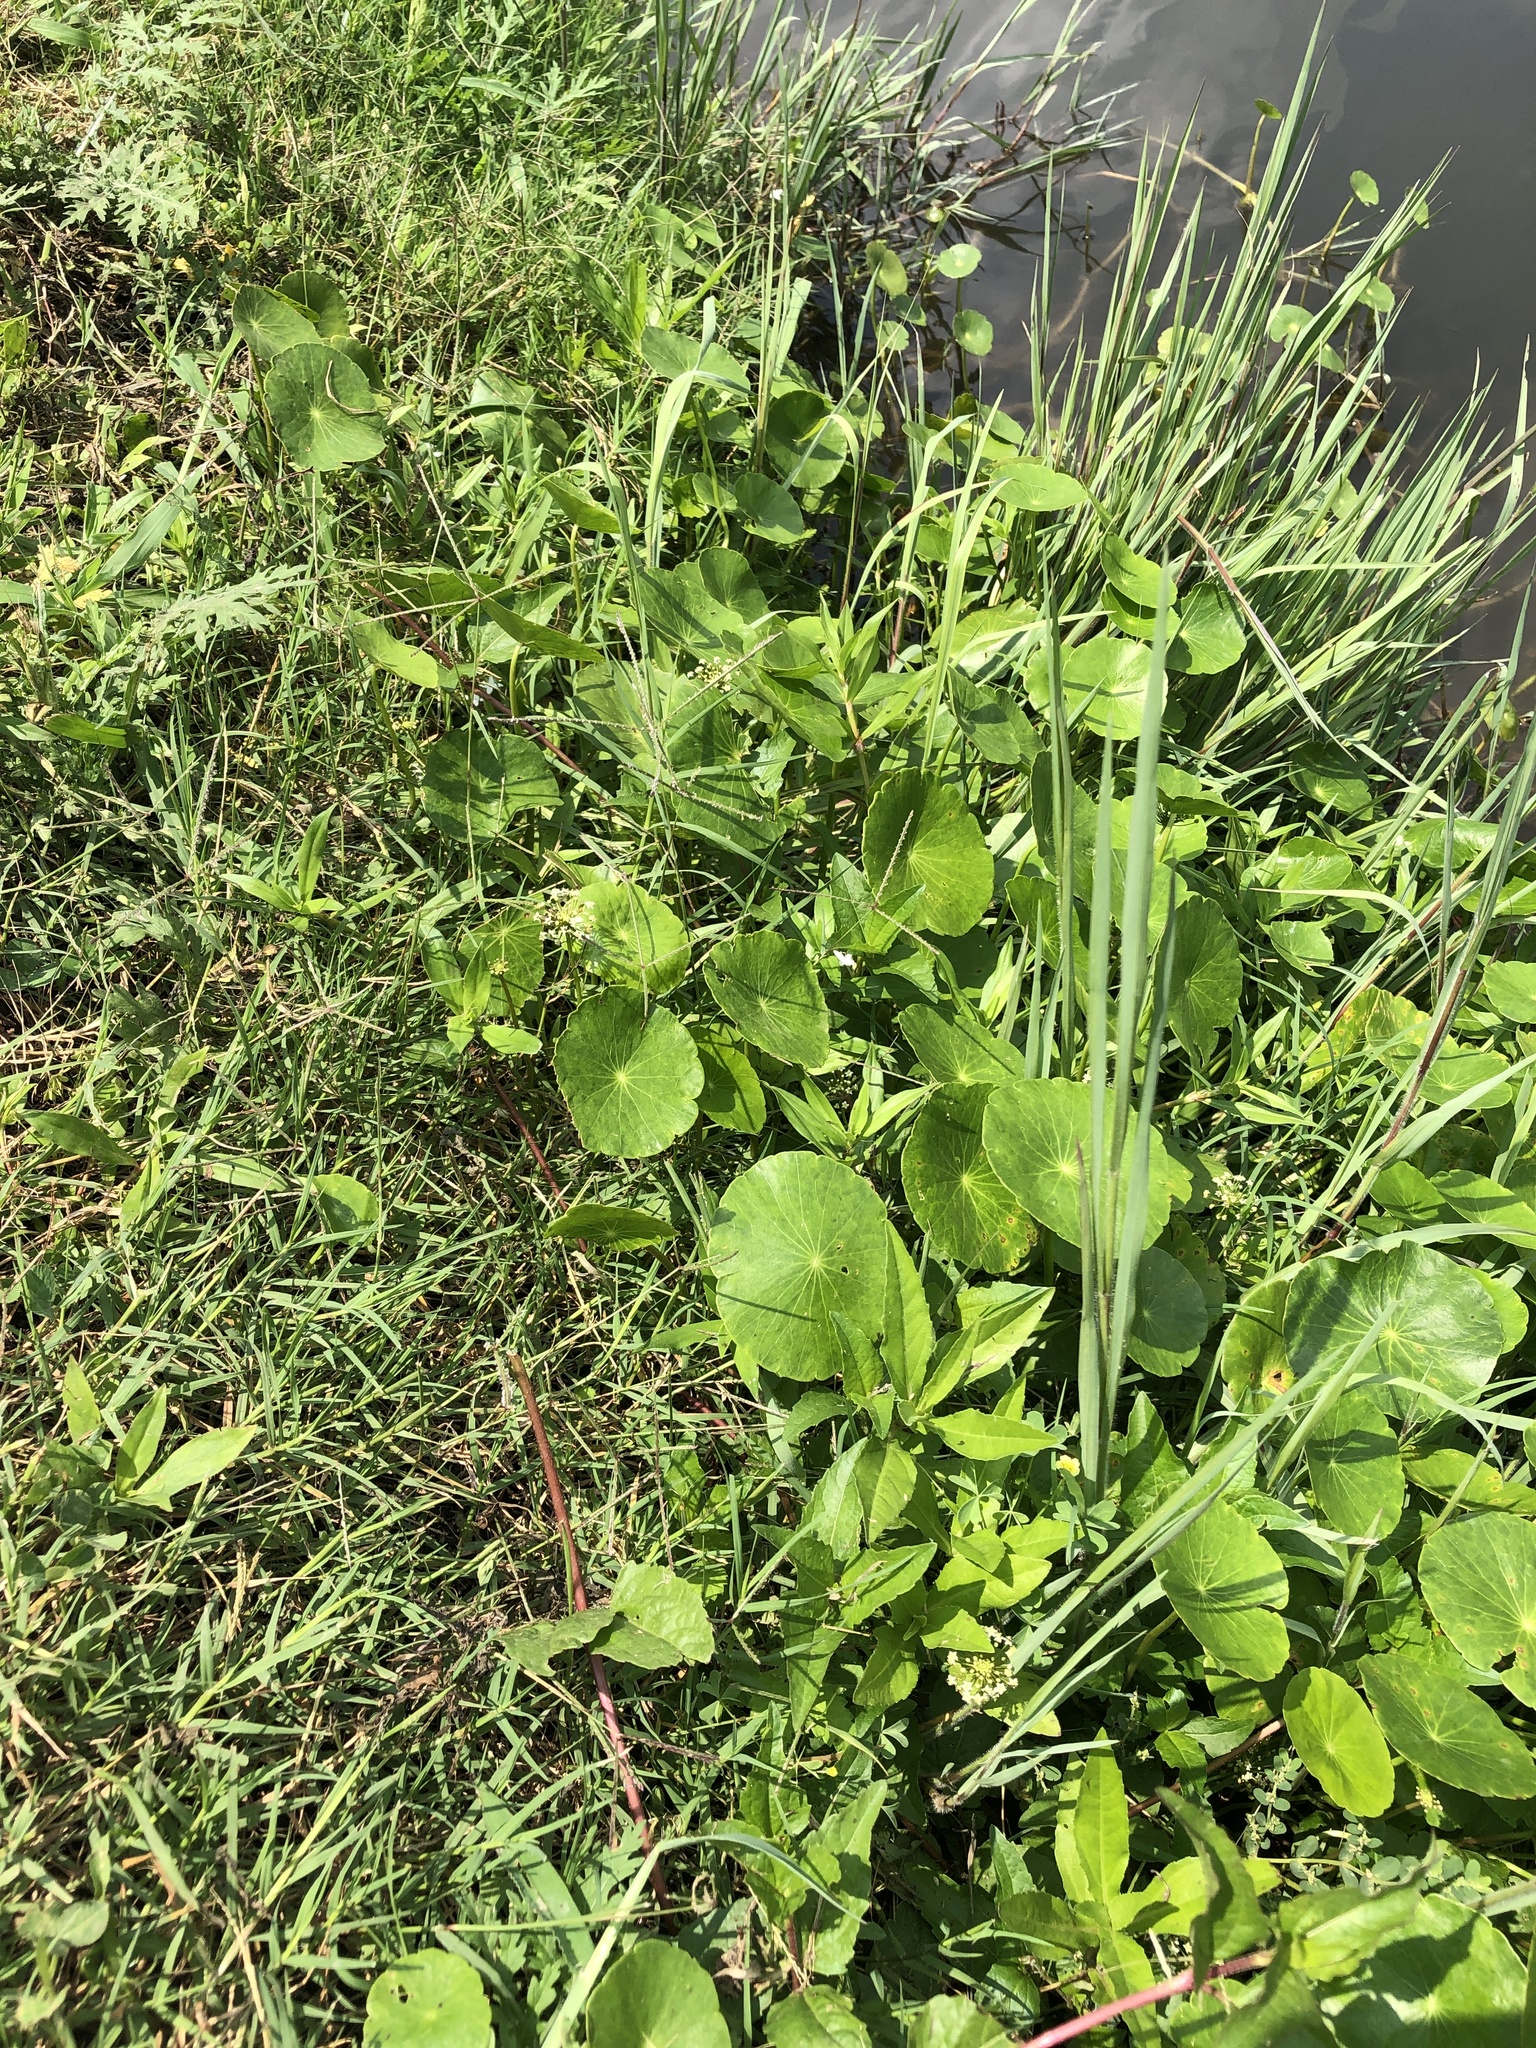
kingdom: Plantae
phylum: Tracheophyta
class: Magnoliopsida
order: Apiales
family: Araliaceae
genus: Hydrocotyle
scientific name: Hydrocotyle umbellata
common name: Water pennywort
